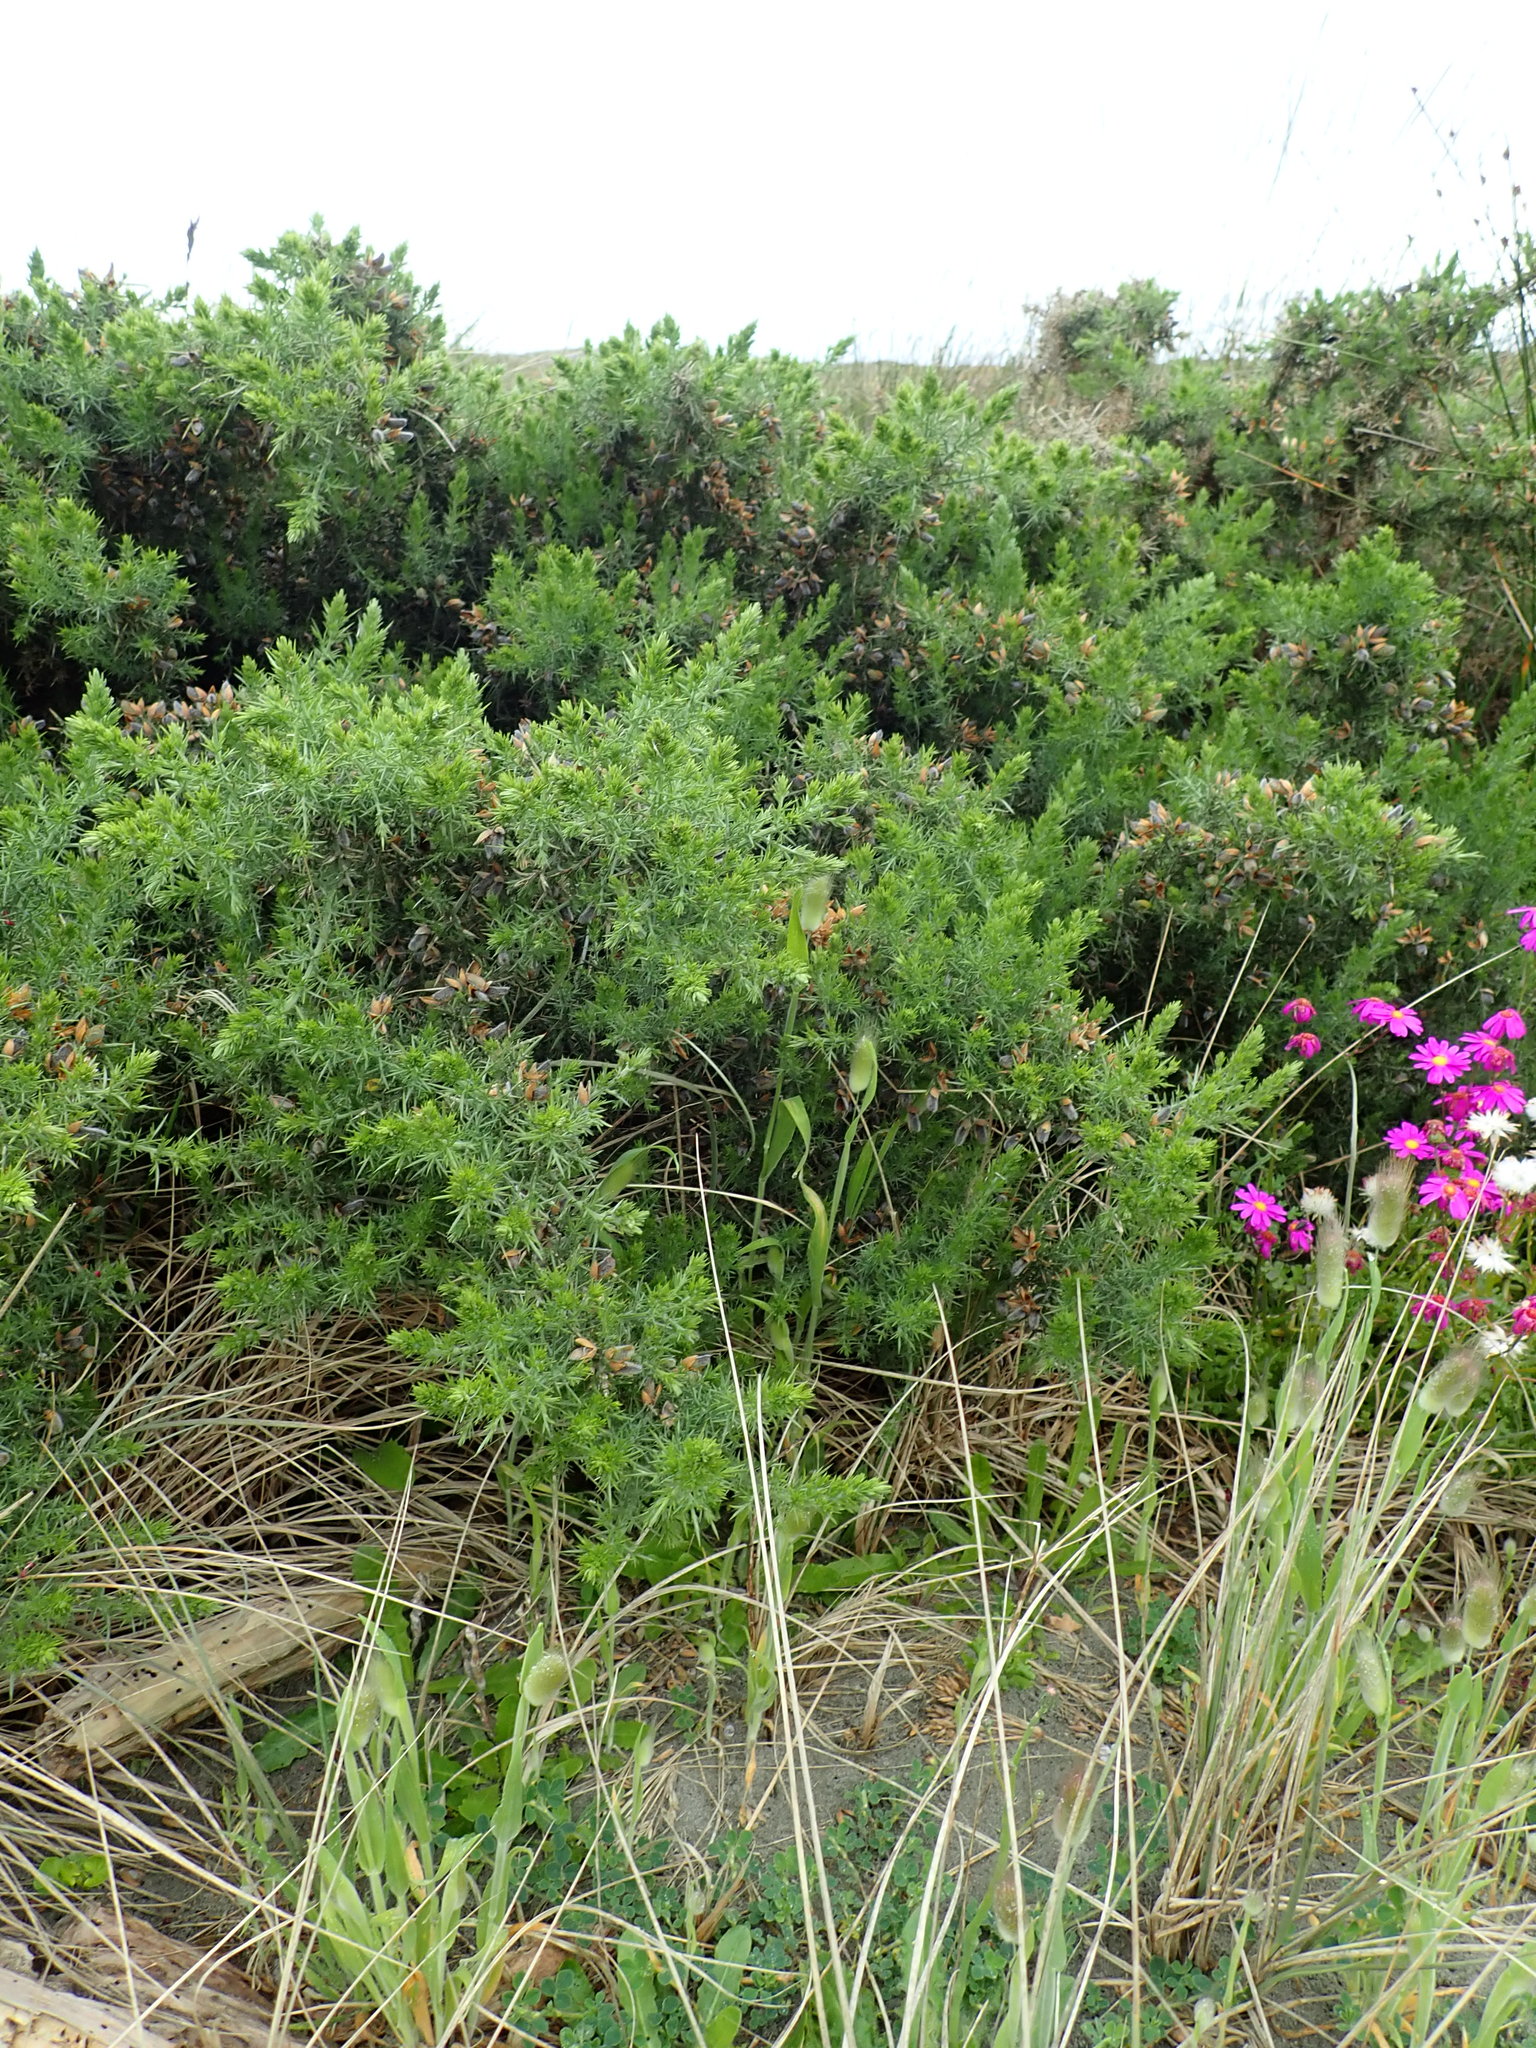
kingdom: Plantae
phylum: Tracheophyta
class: Magnoliopsida
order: Fabales
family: Fabaceae
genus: Ulex
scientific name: Ulex europaeus
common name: Common gorse
